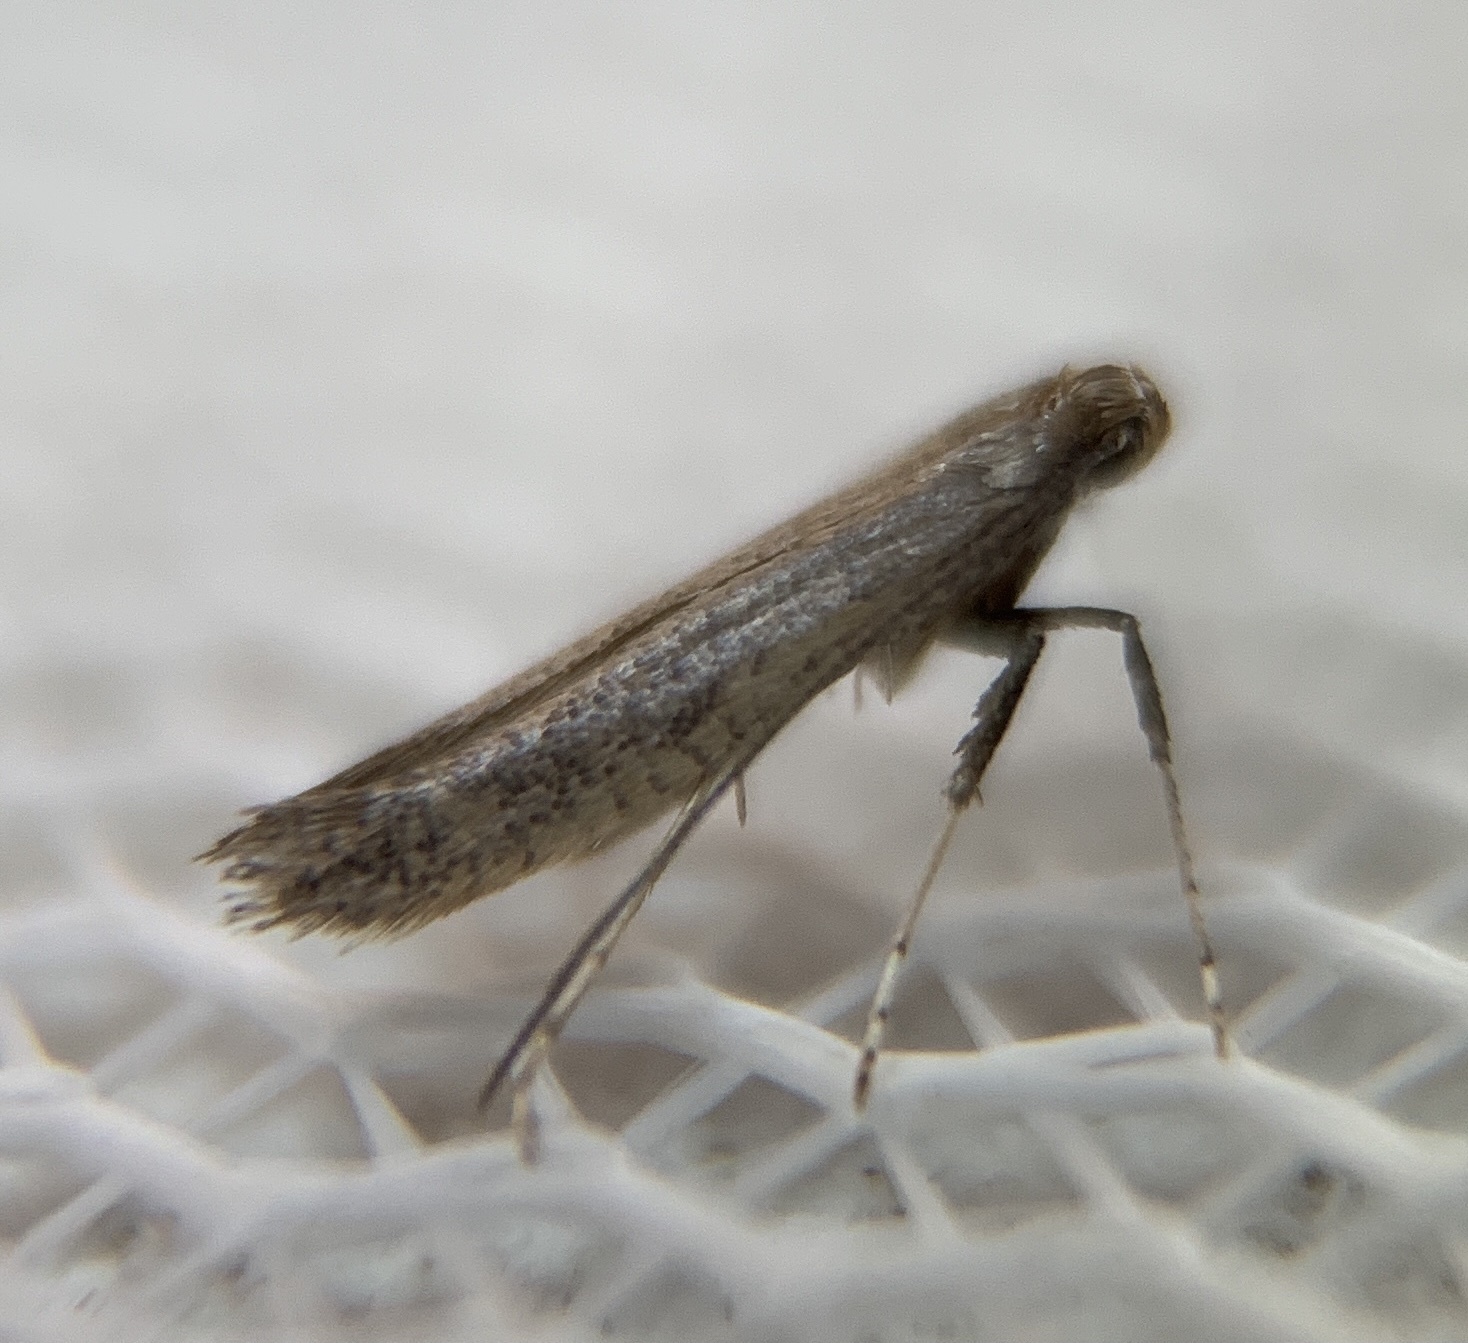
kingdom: Animalia
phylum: Arthropoda
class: Insecta
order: Lepidoptera
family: Gracillariidae
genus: Caloptilia
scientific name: Caloptilia hypericella
